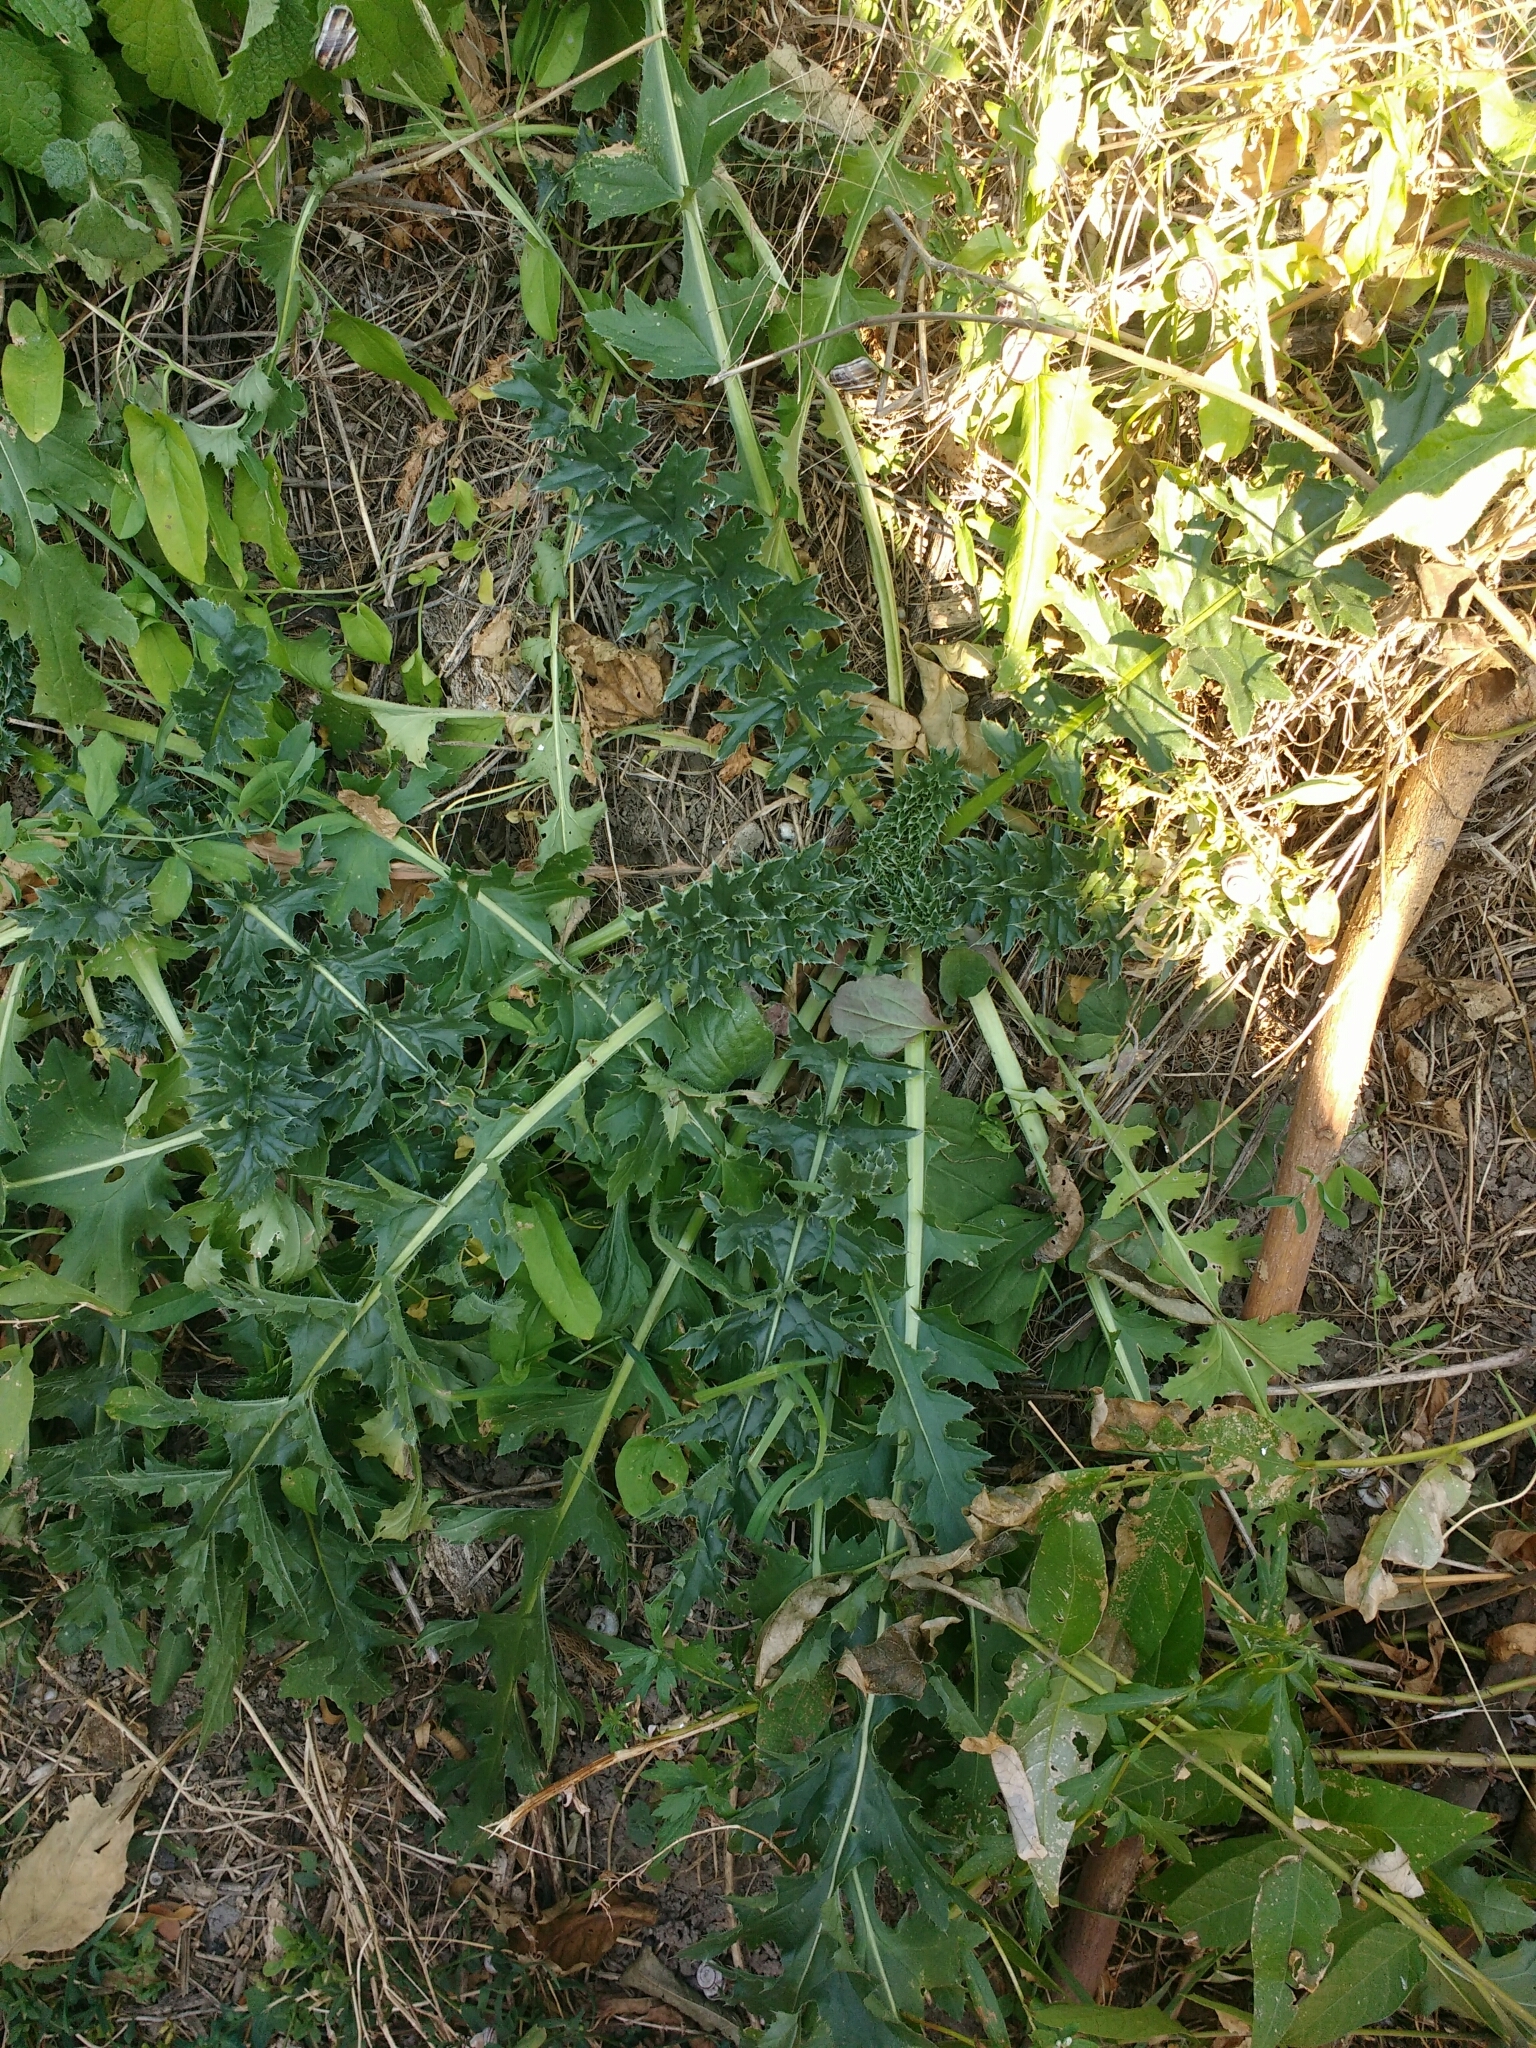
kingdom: Plantae
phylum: Tracheophyta
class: Magnoliopsida
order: Asterales
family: Asteraceae
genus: Carduus
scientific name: Carduus acanthoides
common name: Plumeless thistle
